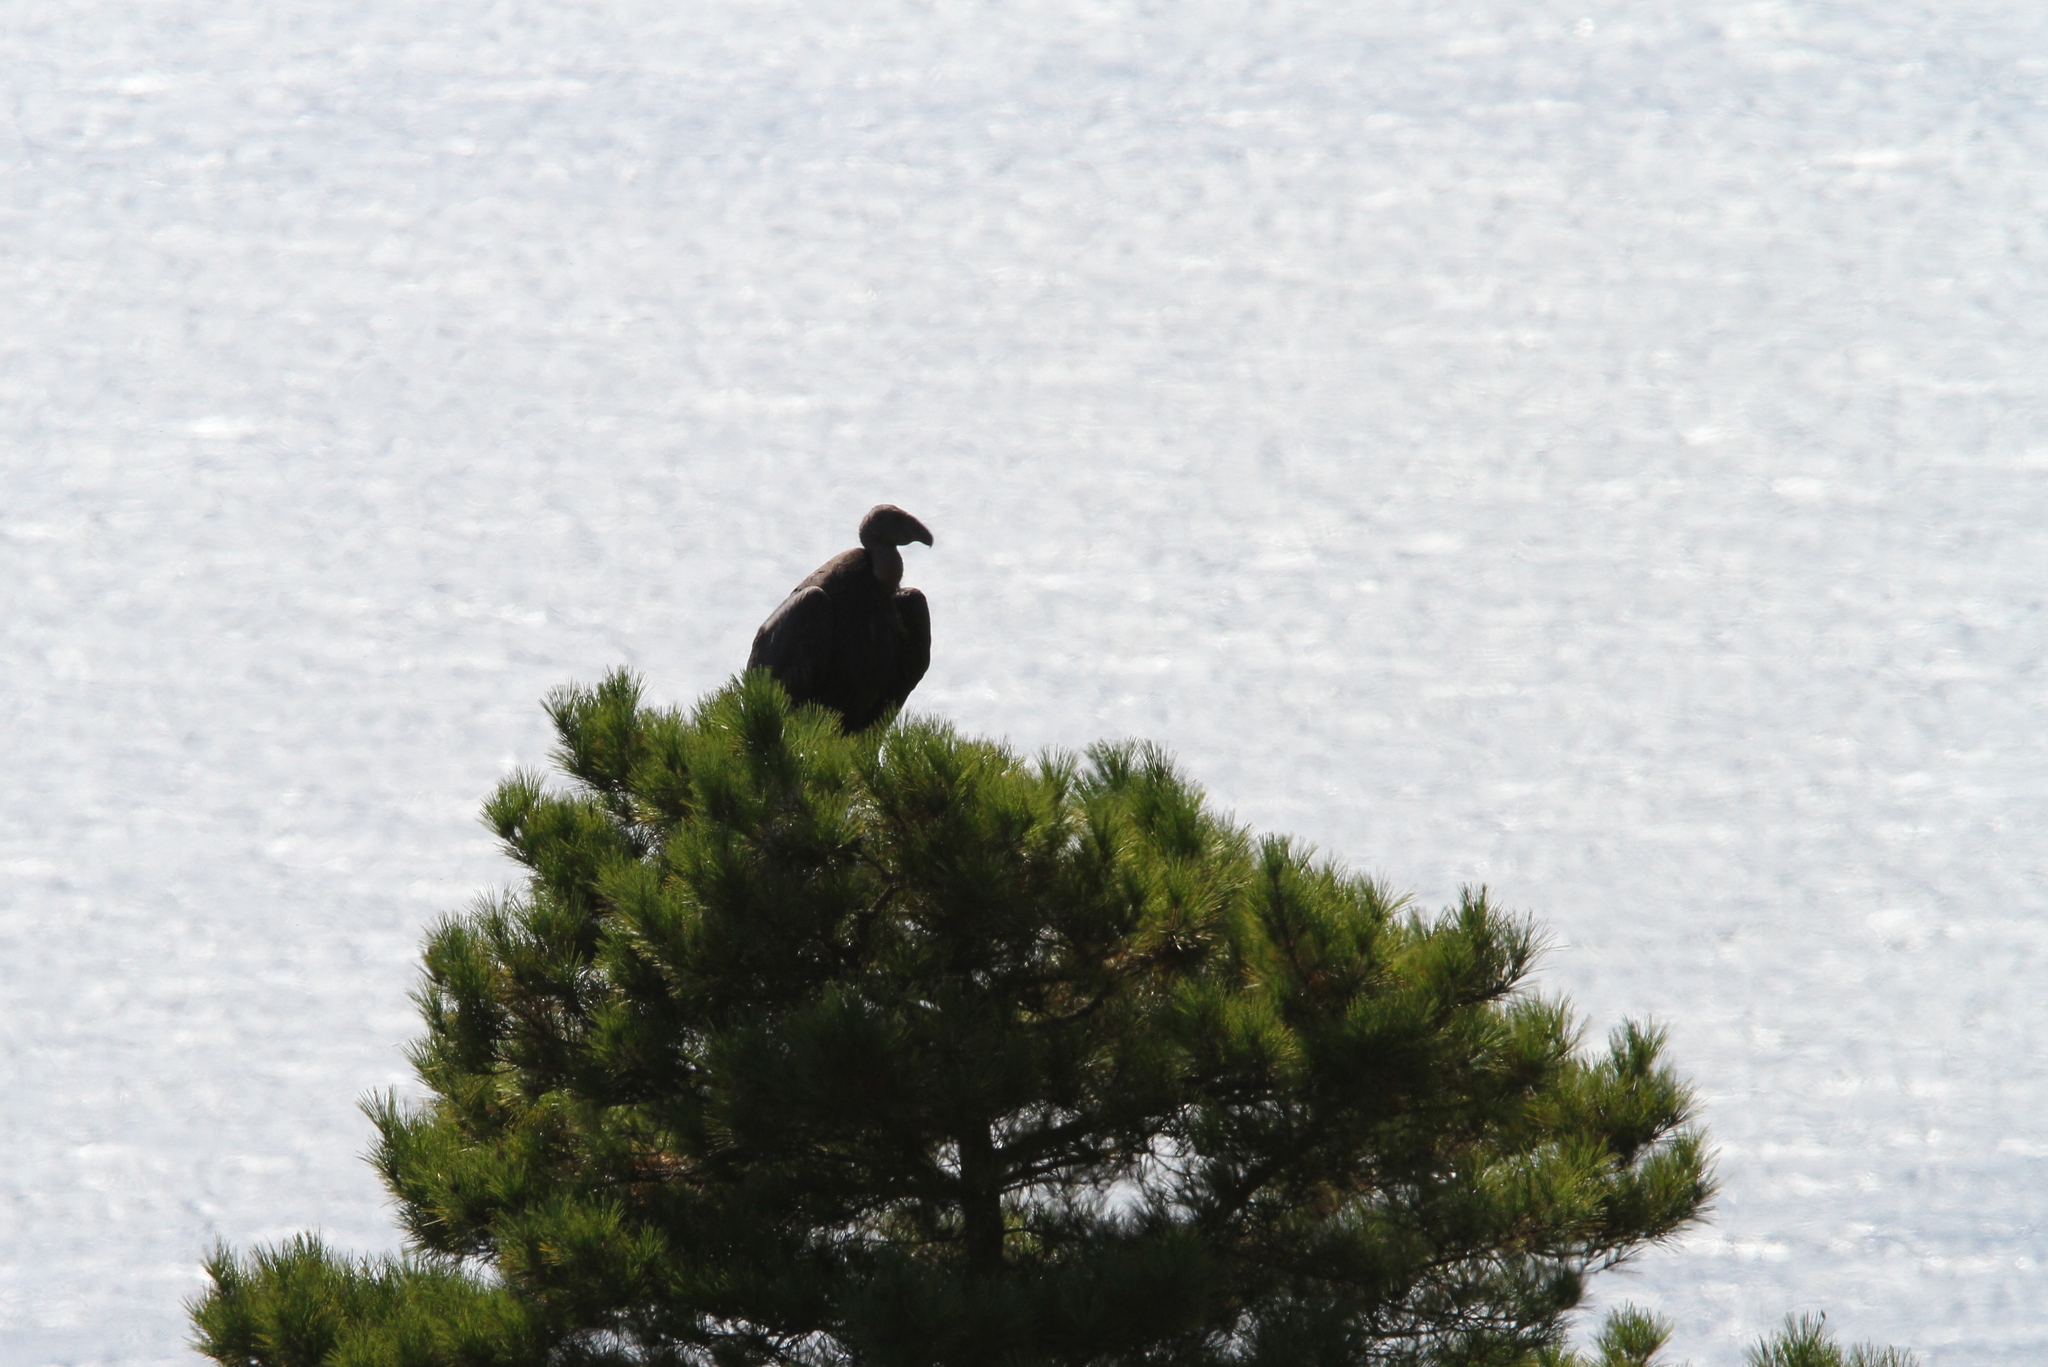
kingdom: Animalia
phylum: Chordata
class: Aves
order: Accipitriformes
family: Cathartidae
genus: Gymnogyps
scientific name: Gymnogyps californianus
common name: California condor
